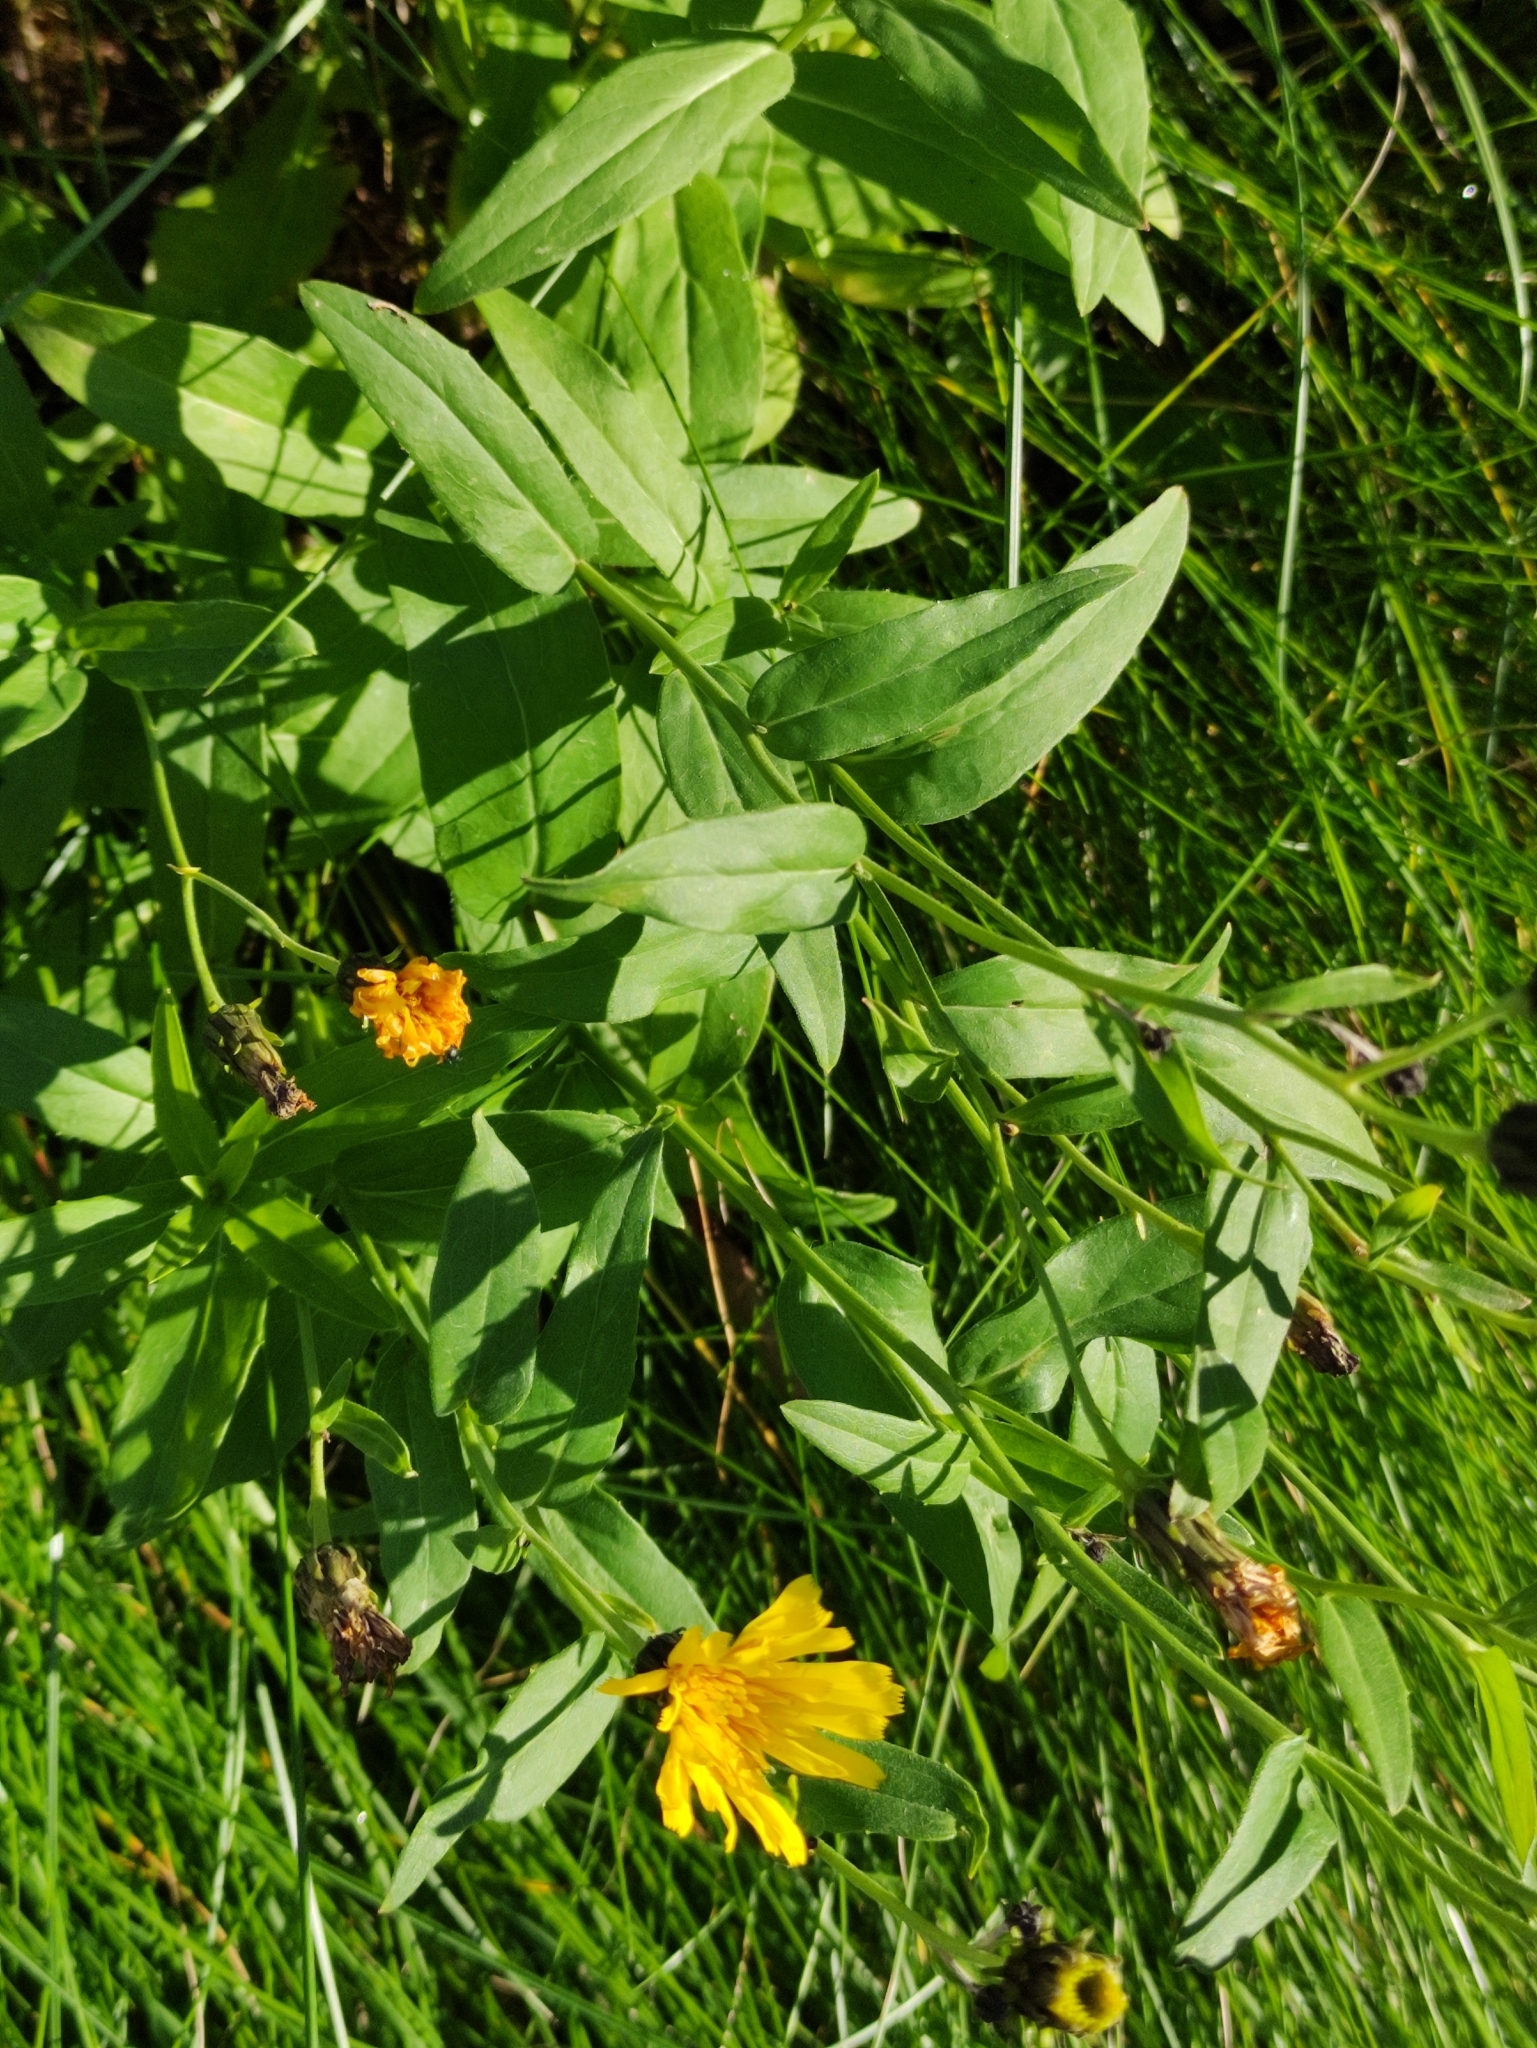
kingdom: Plantae
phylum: Tracheophyta
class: Magnoliopsida
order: Asterales
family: Asteraceae
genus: Hieracium
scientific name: Hieracium umbellatum
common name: Northern hawkweed
